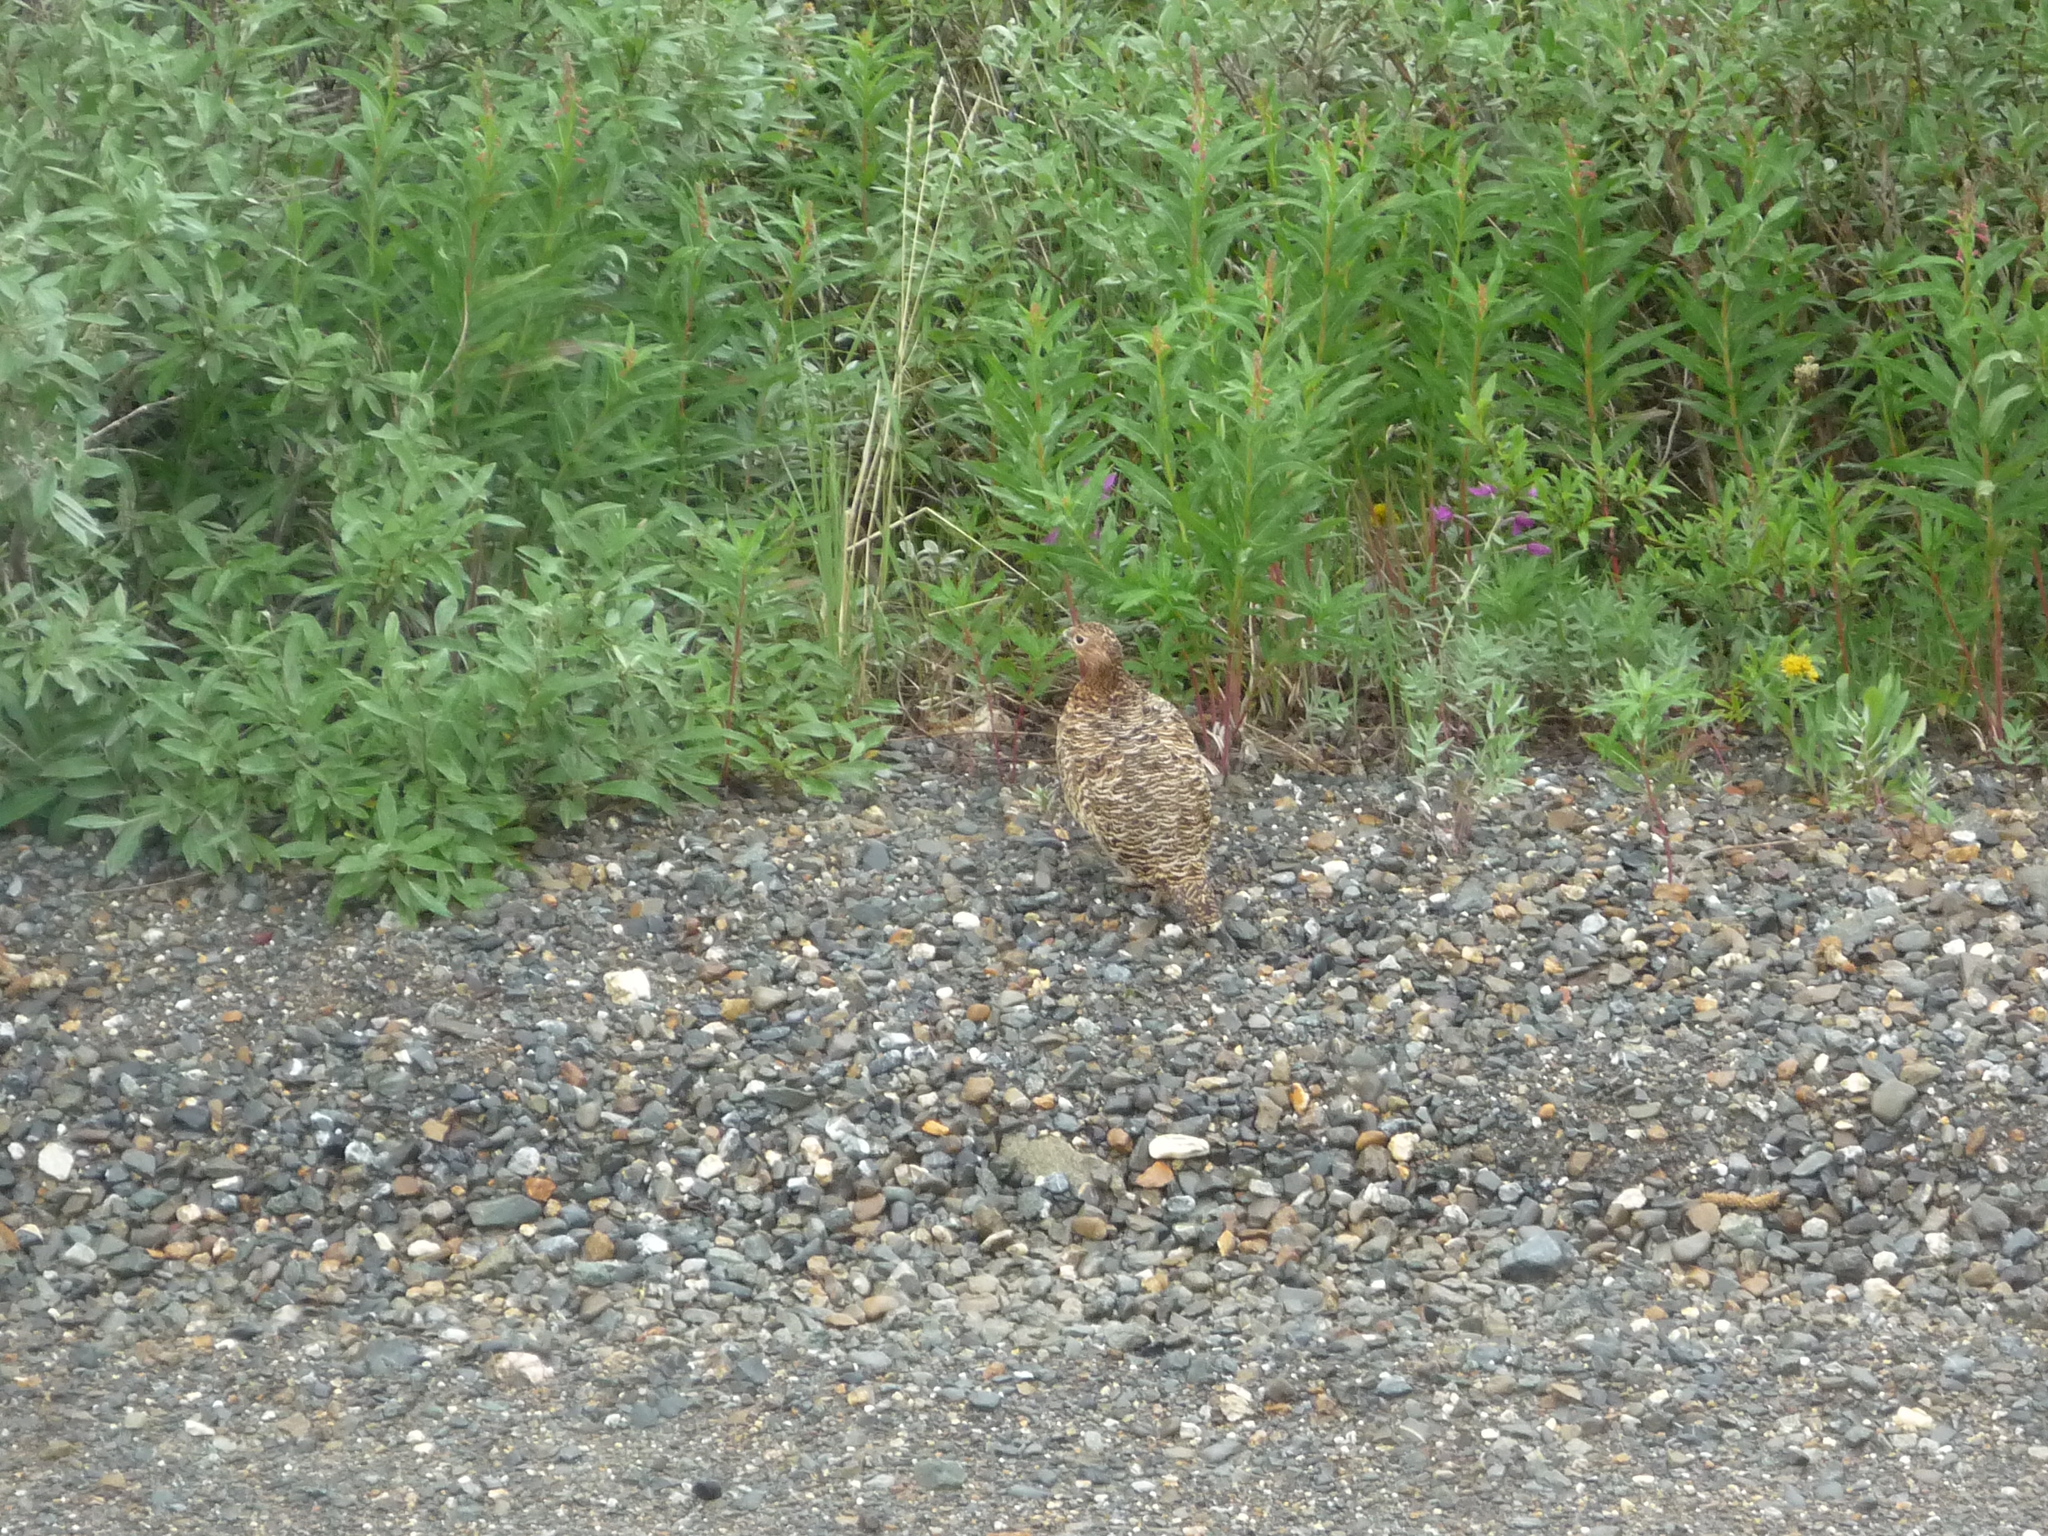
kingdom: Animalia
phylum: Chordata
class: Aves
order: Galliformes
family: Phasianidae
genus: Lagopus
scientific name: Lagopus lagopus
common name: Willow ptarmigan
